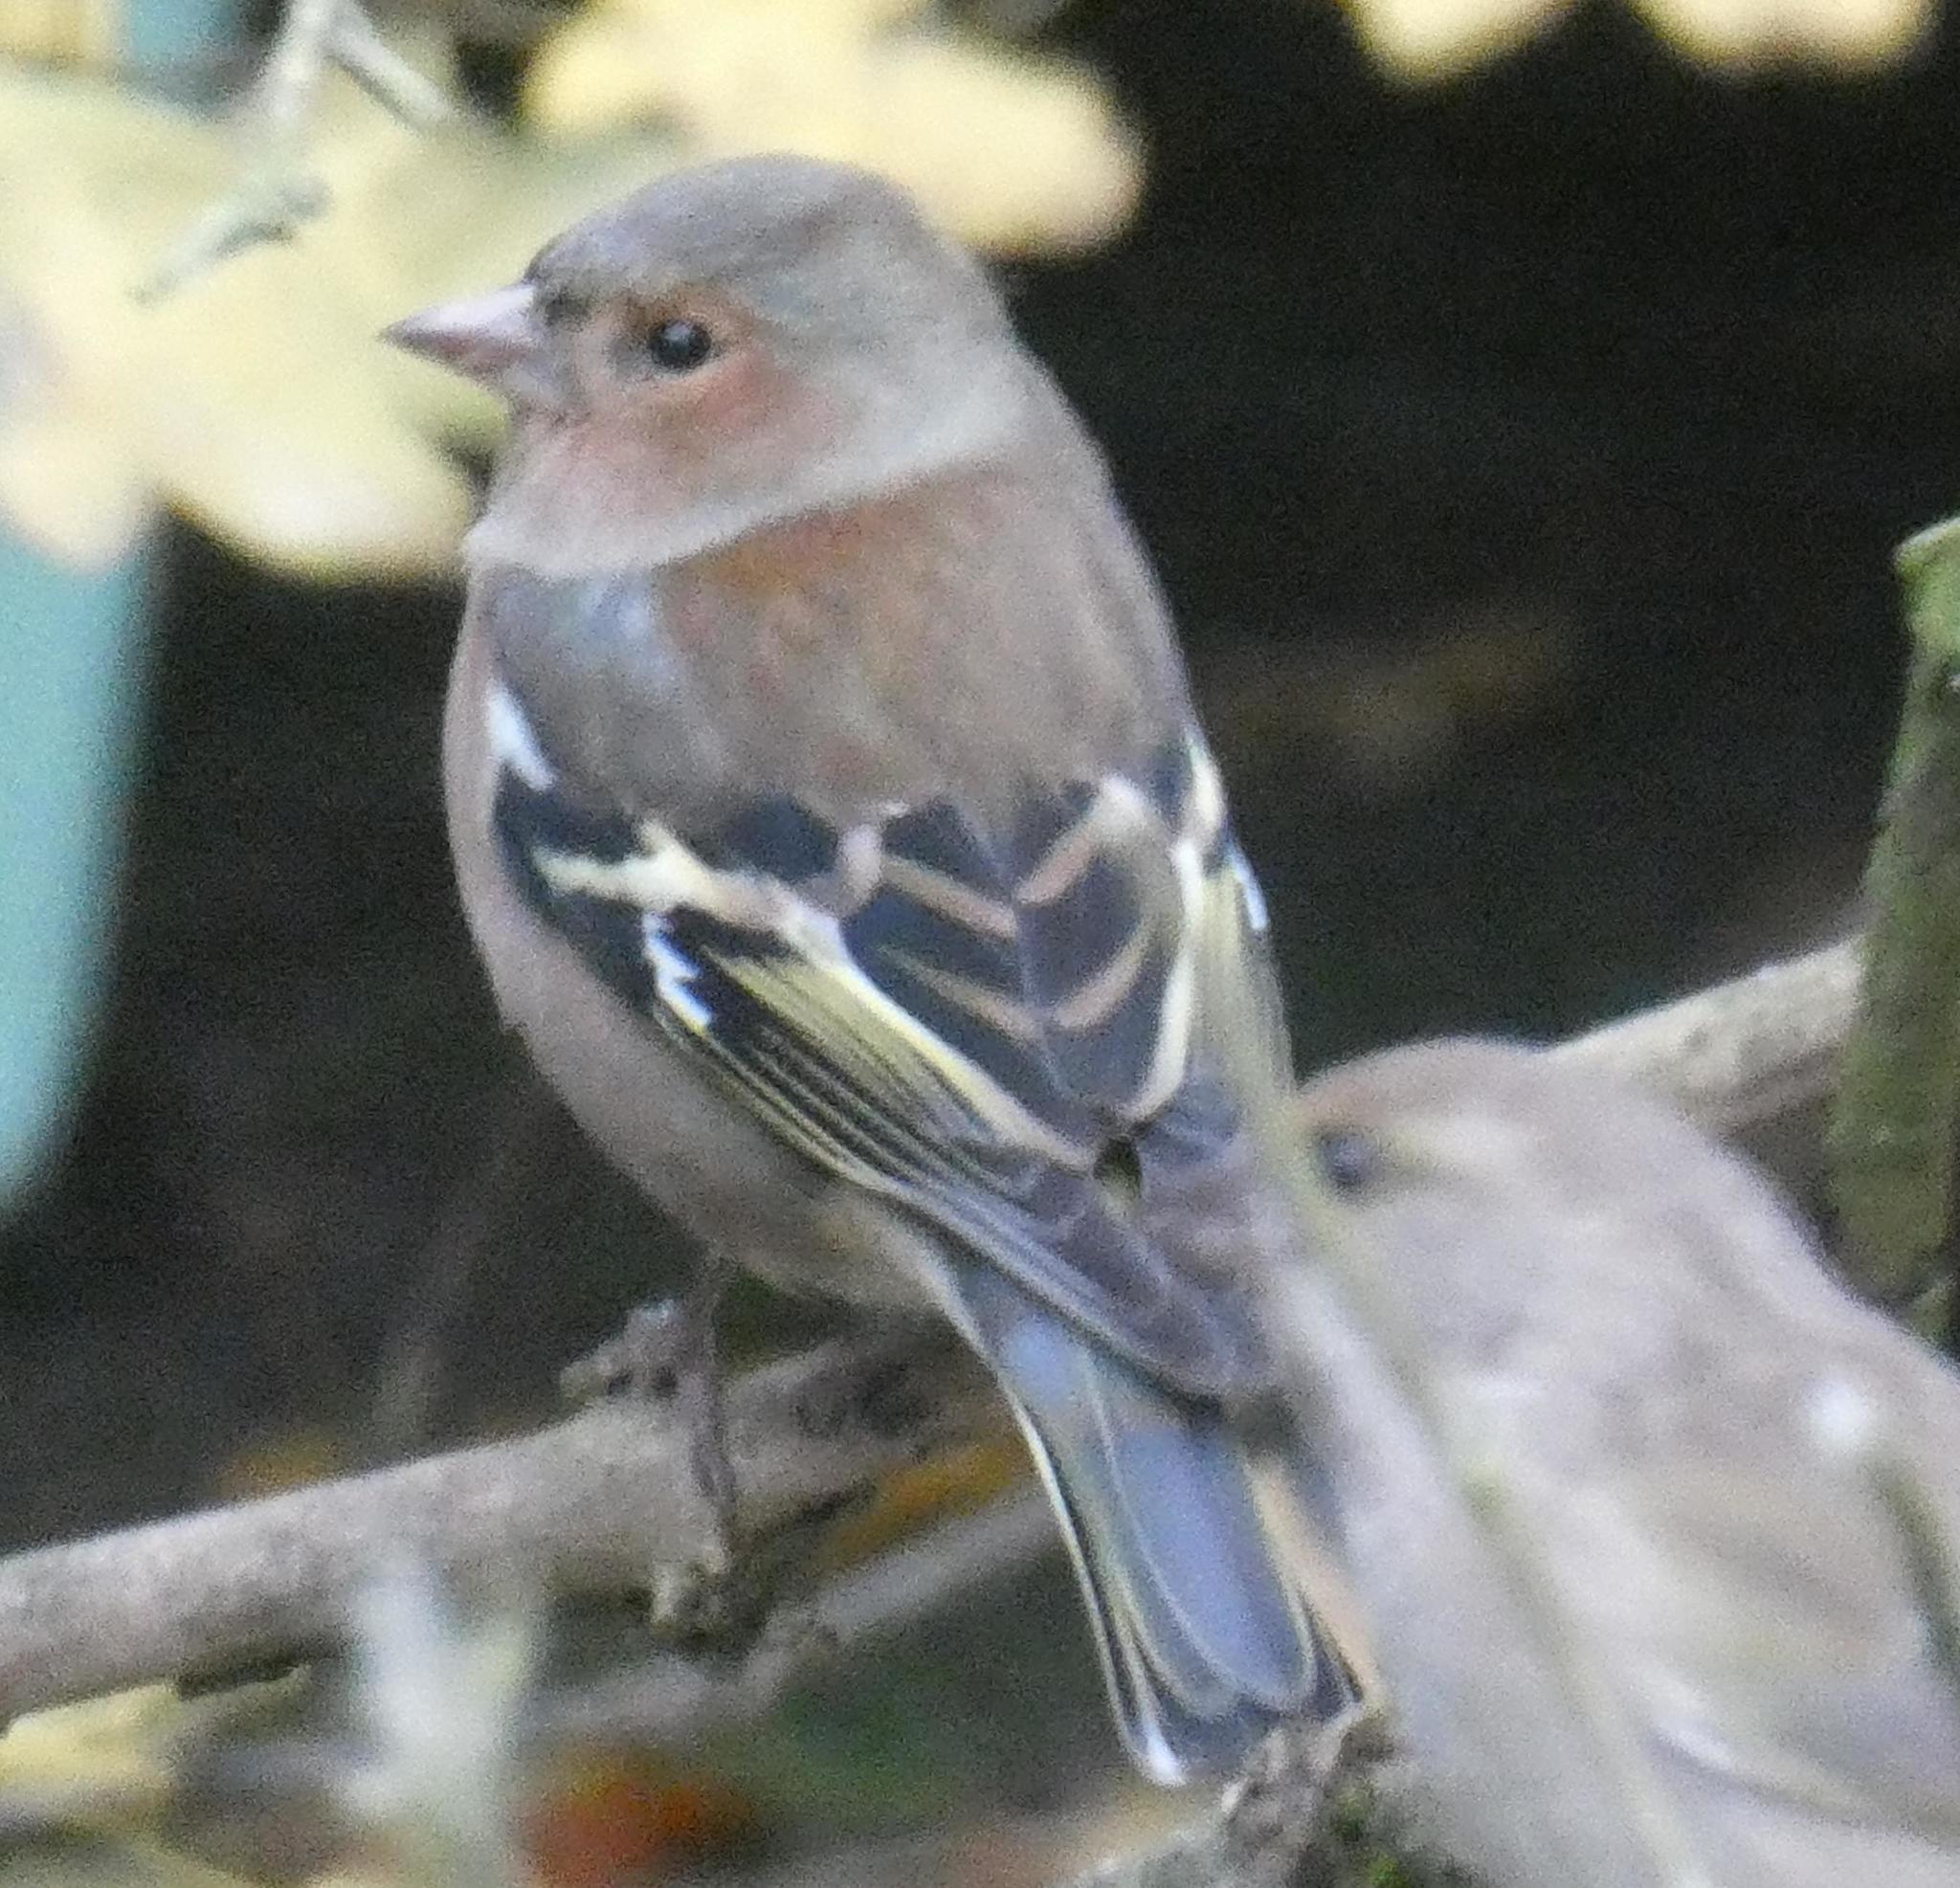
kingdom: Animalia
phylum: Chordata
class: Aves
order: Passeriformes
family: Fringillidae
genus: Fringilla
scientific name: Fringilla coelebs
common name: Common chaffinch
